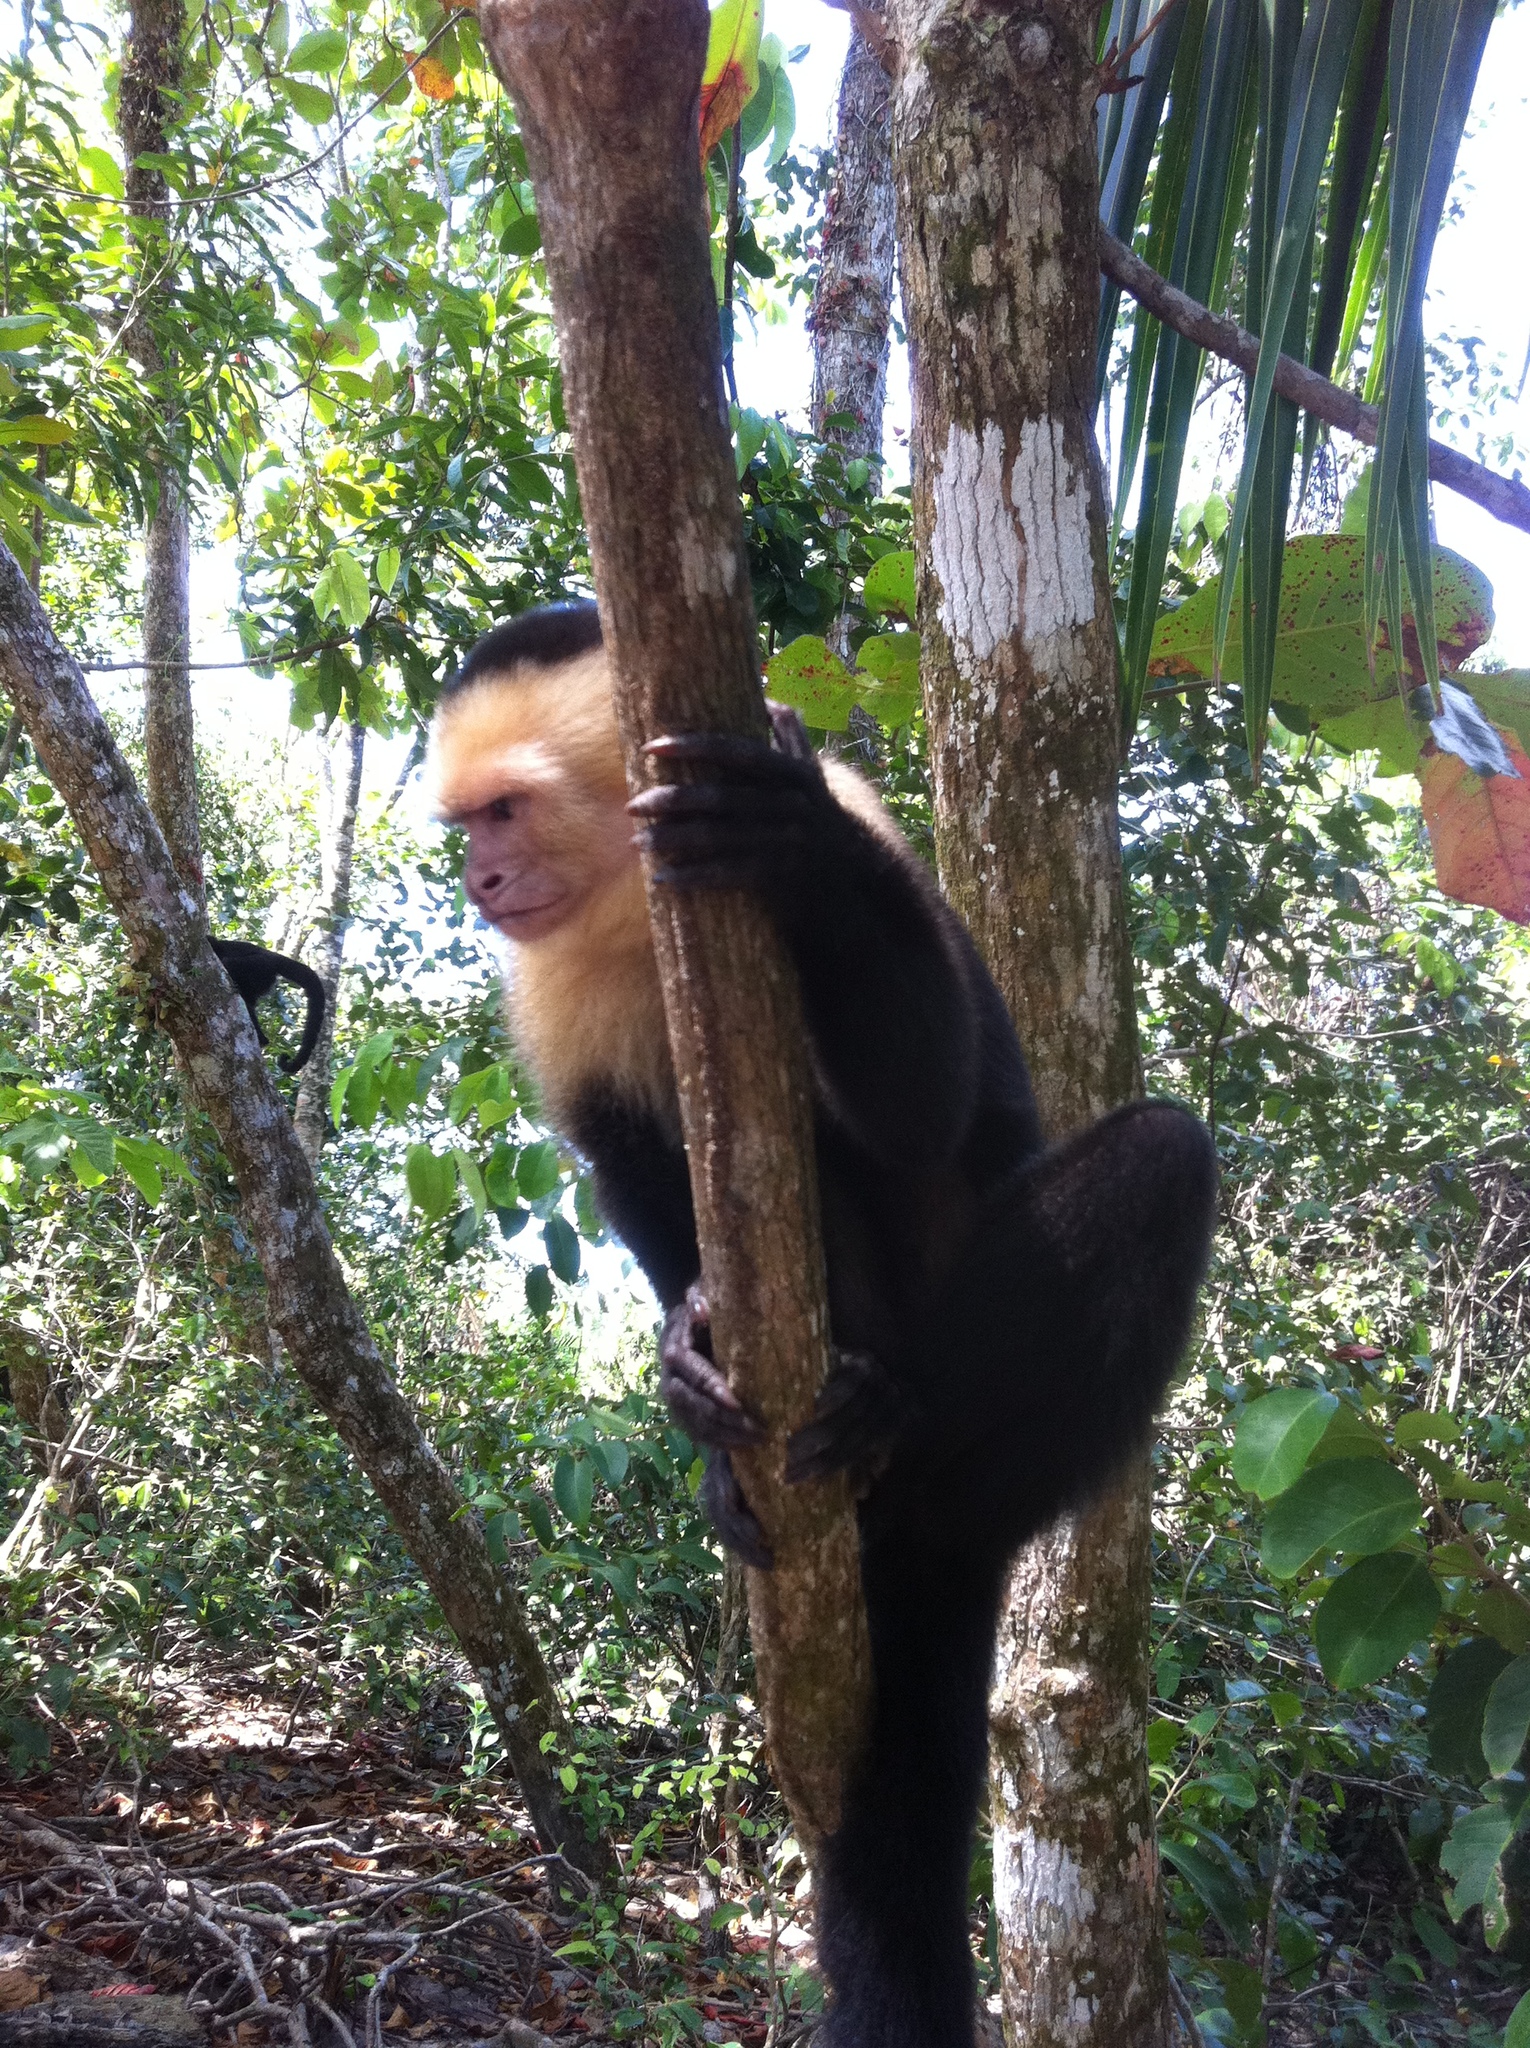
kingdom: Animalia
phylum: Chordata
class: Mammalia
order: Primates
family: Cebidae
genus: Cebus
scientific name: Cebus imitator
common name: Panamanian white-faced capuchin
